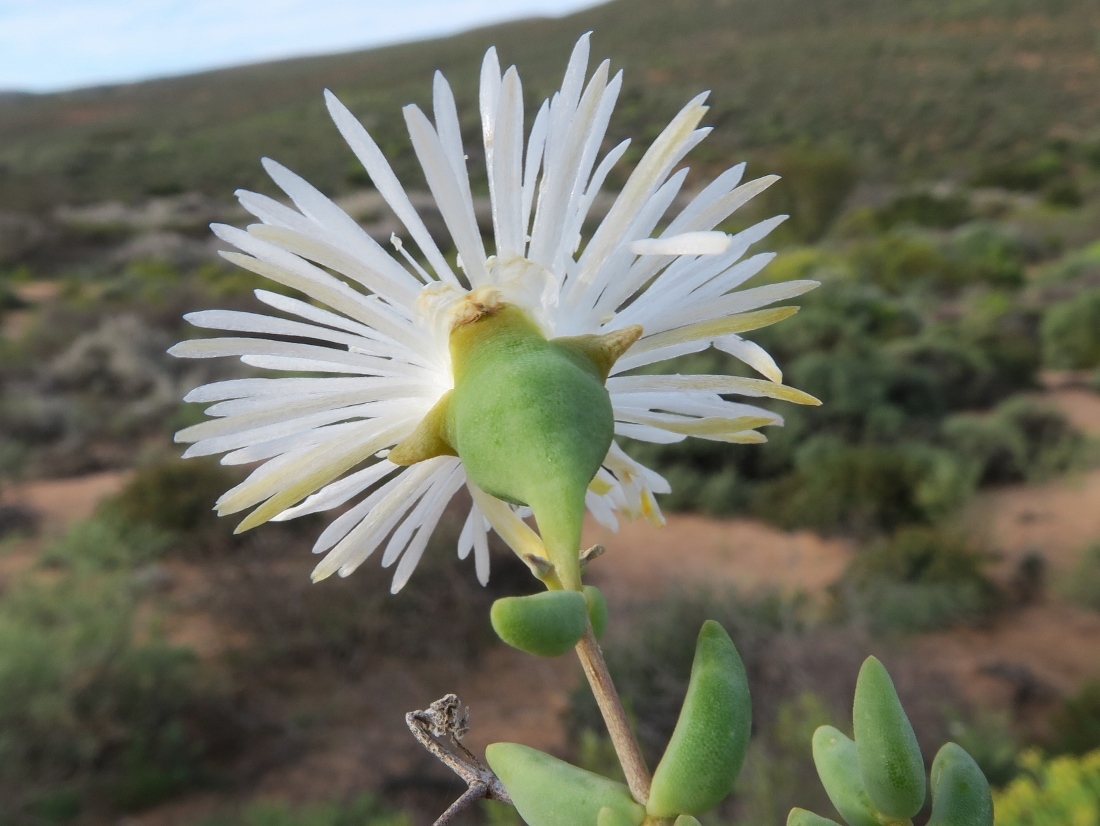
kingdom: Plantae
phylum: Tracheophyta
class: Magnoliopsida
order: Caryophyllales
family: Aizoaceae
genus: Mesembryanthemum
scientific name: Mesembryanthemum noctiflorum
